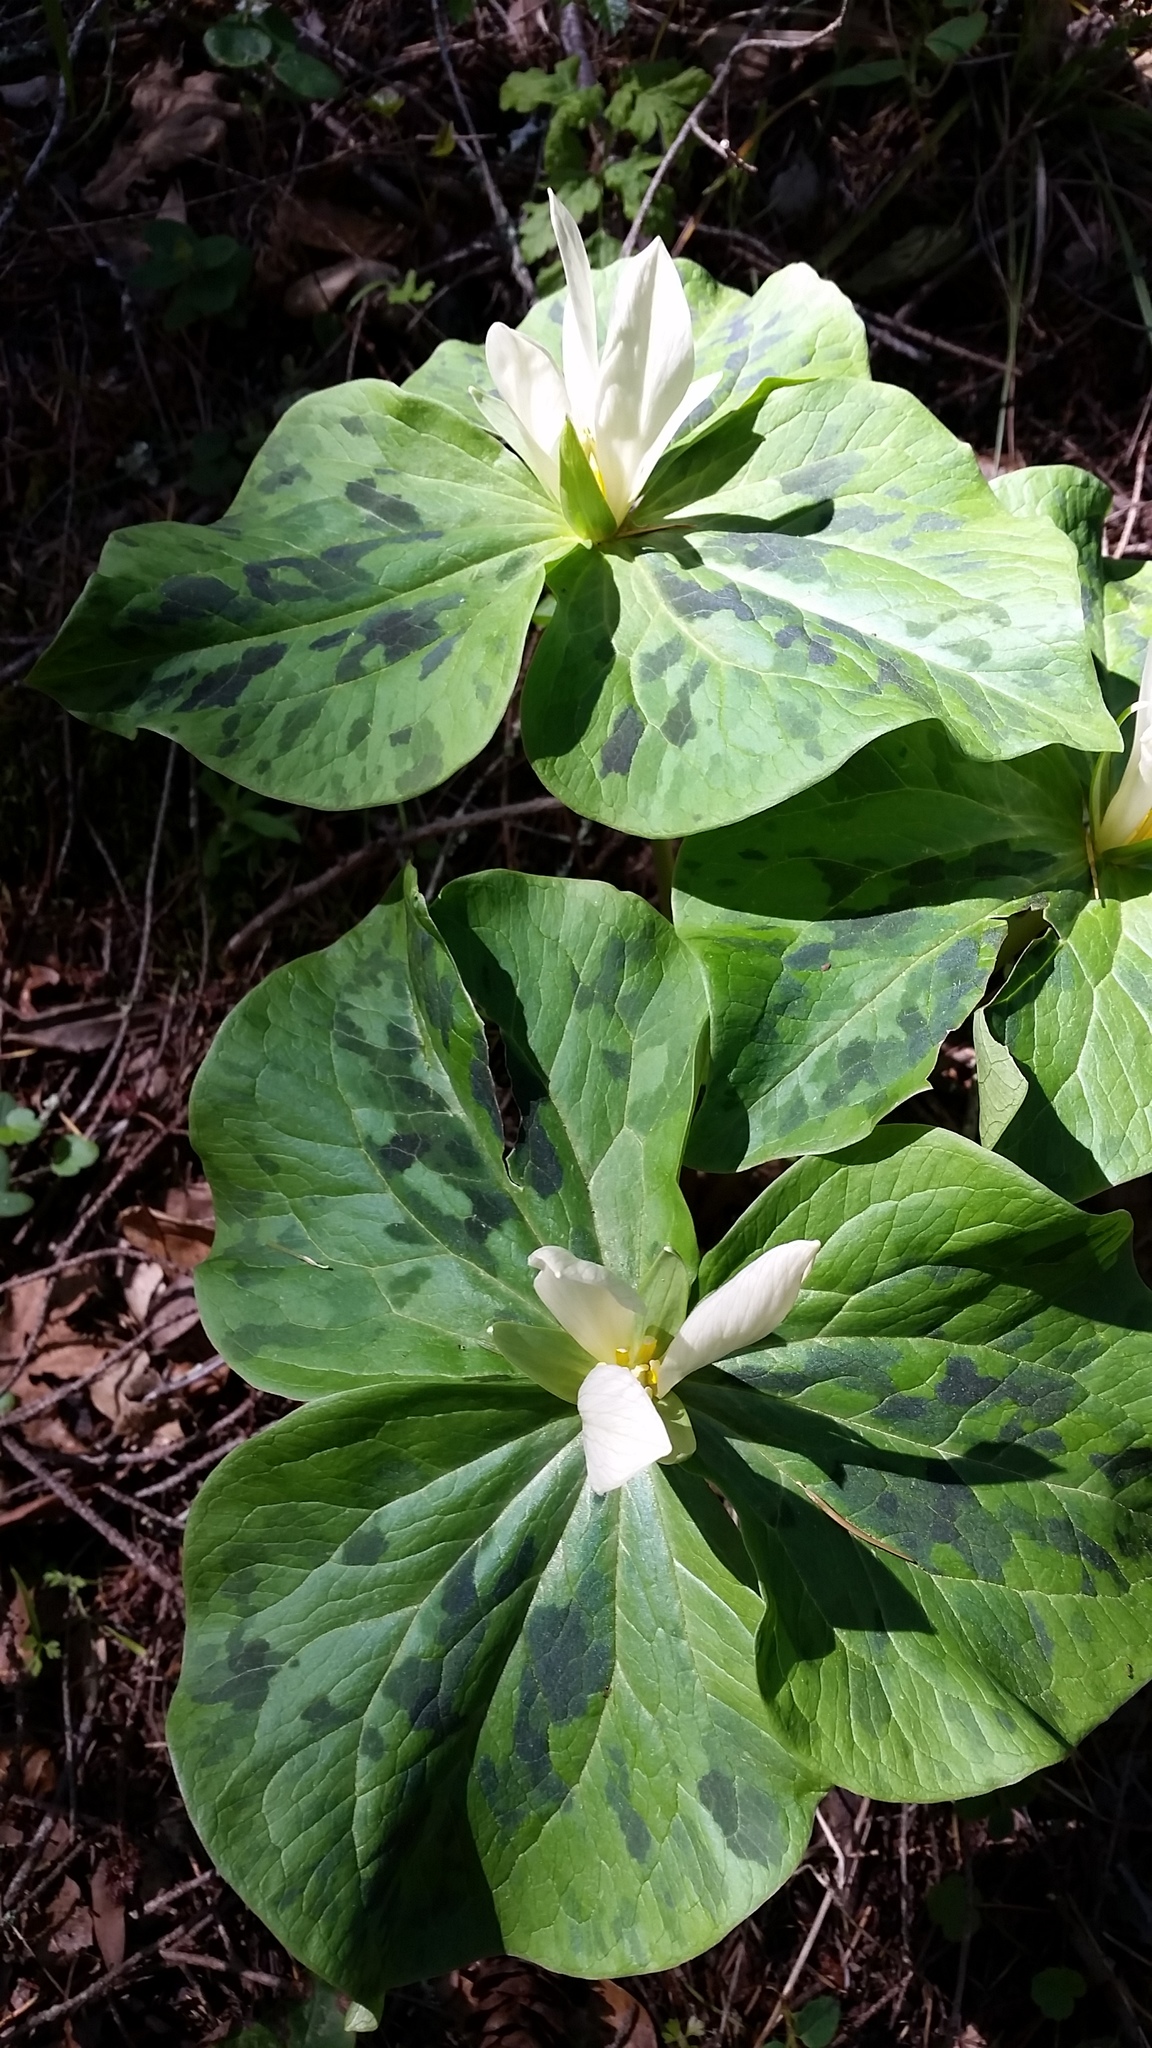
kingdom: Plantae
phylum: Tracheophyta
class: Liliopsida
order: Liliales
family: Melanthiaceae
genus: Trillium
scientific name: Trillium albidum
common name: Freeman's trillium
